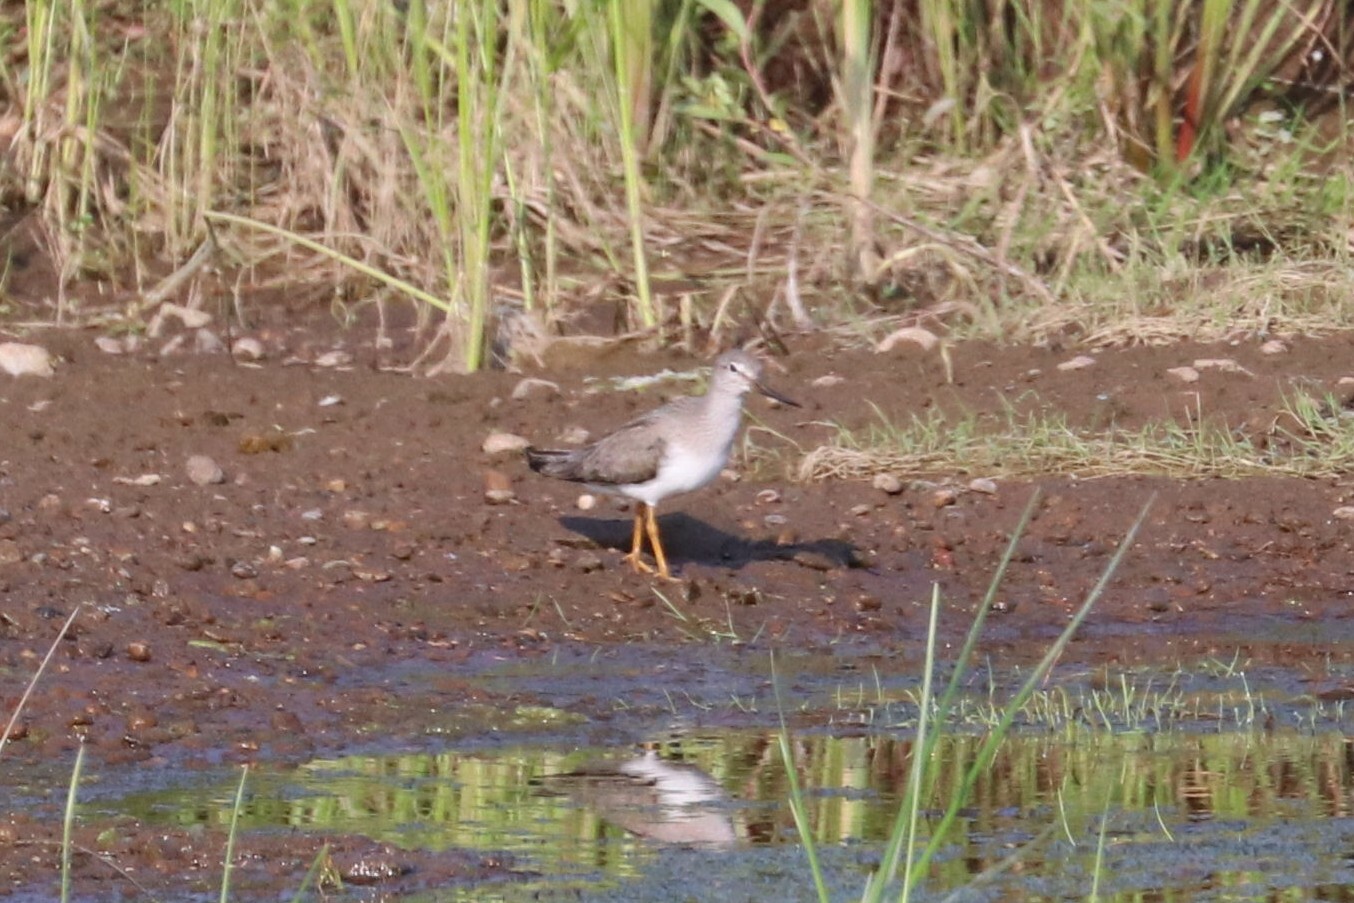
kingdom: Animalia
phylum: Chordata
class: Aves
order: Charadriiformes
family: Scolopacidae
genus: Xenus
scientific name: Xenus cinereus
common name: Terek sandpiper
